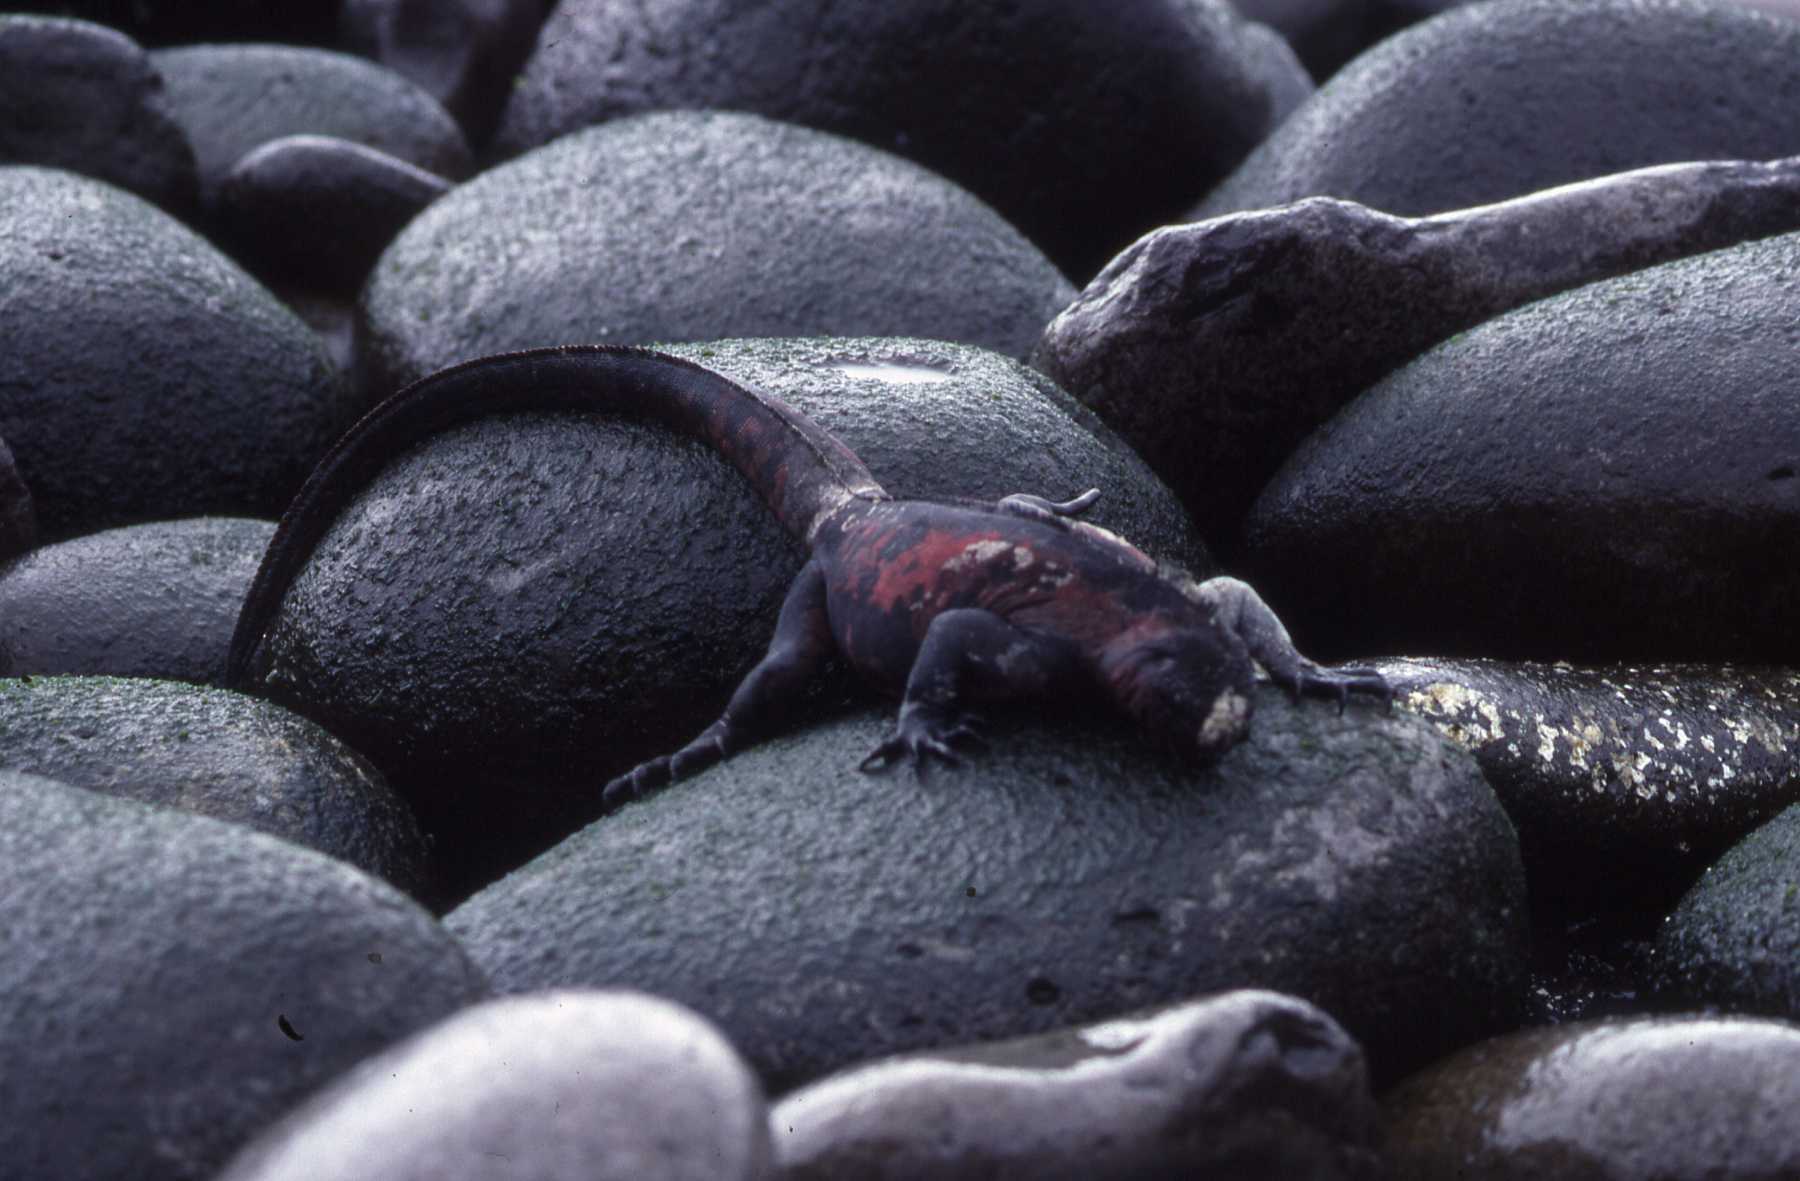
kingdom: Animalia
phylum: Chordata
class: Squamata
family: Iguanidae
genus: Amblyrhynchus
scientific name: Amblyrhynchus cristatus
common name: Marine iguana
